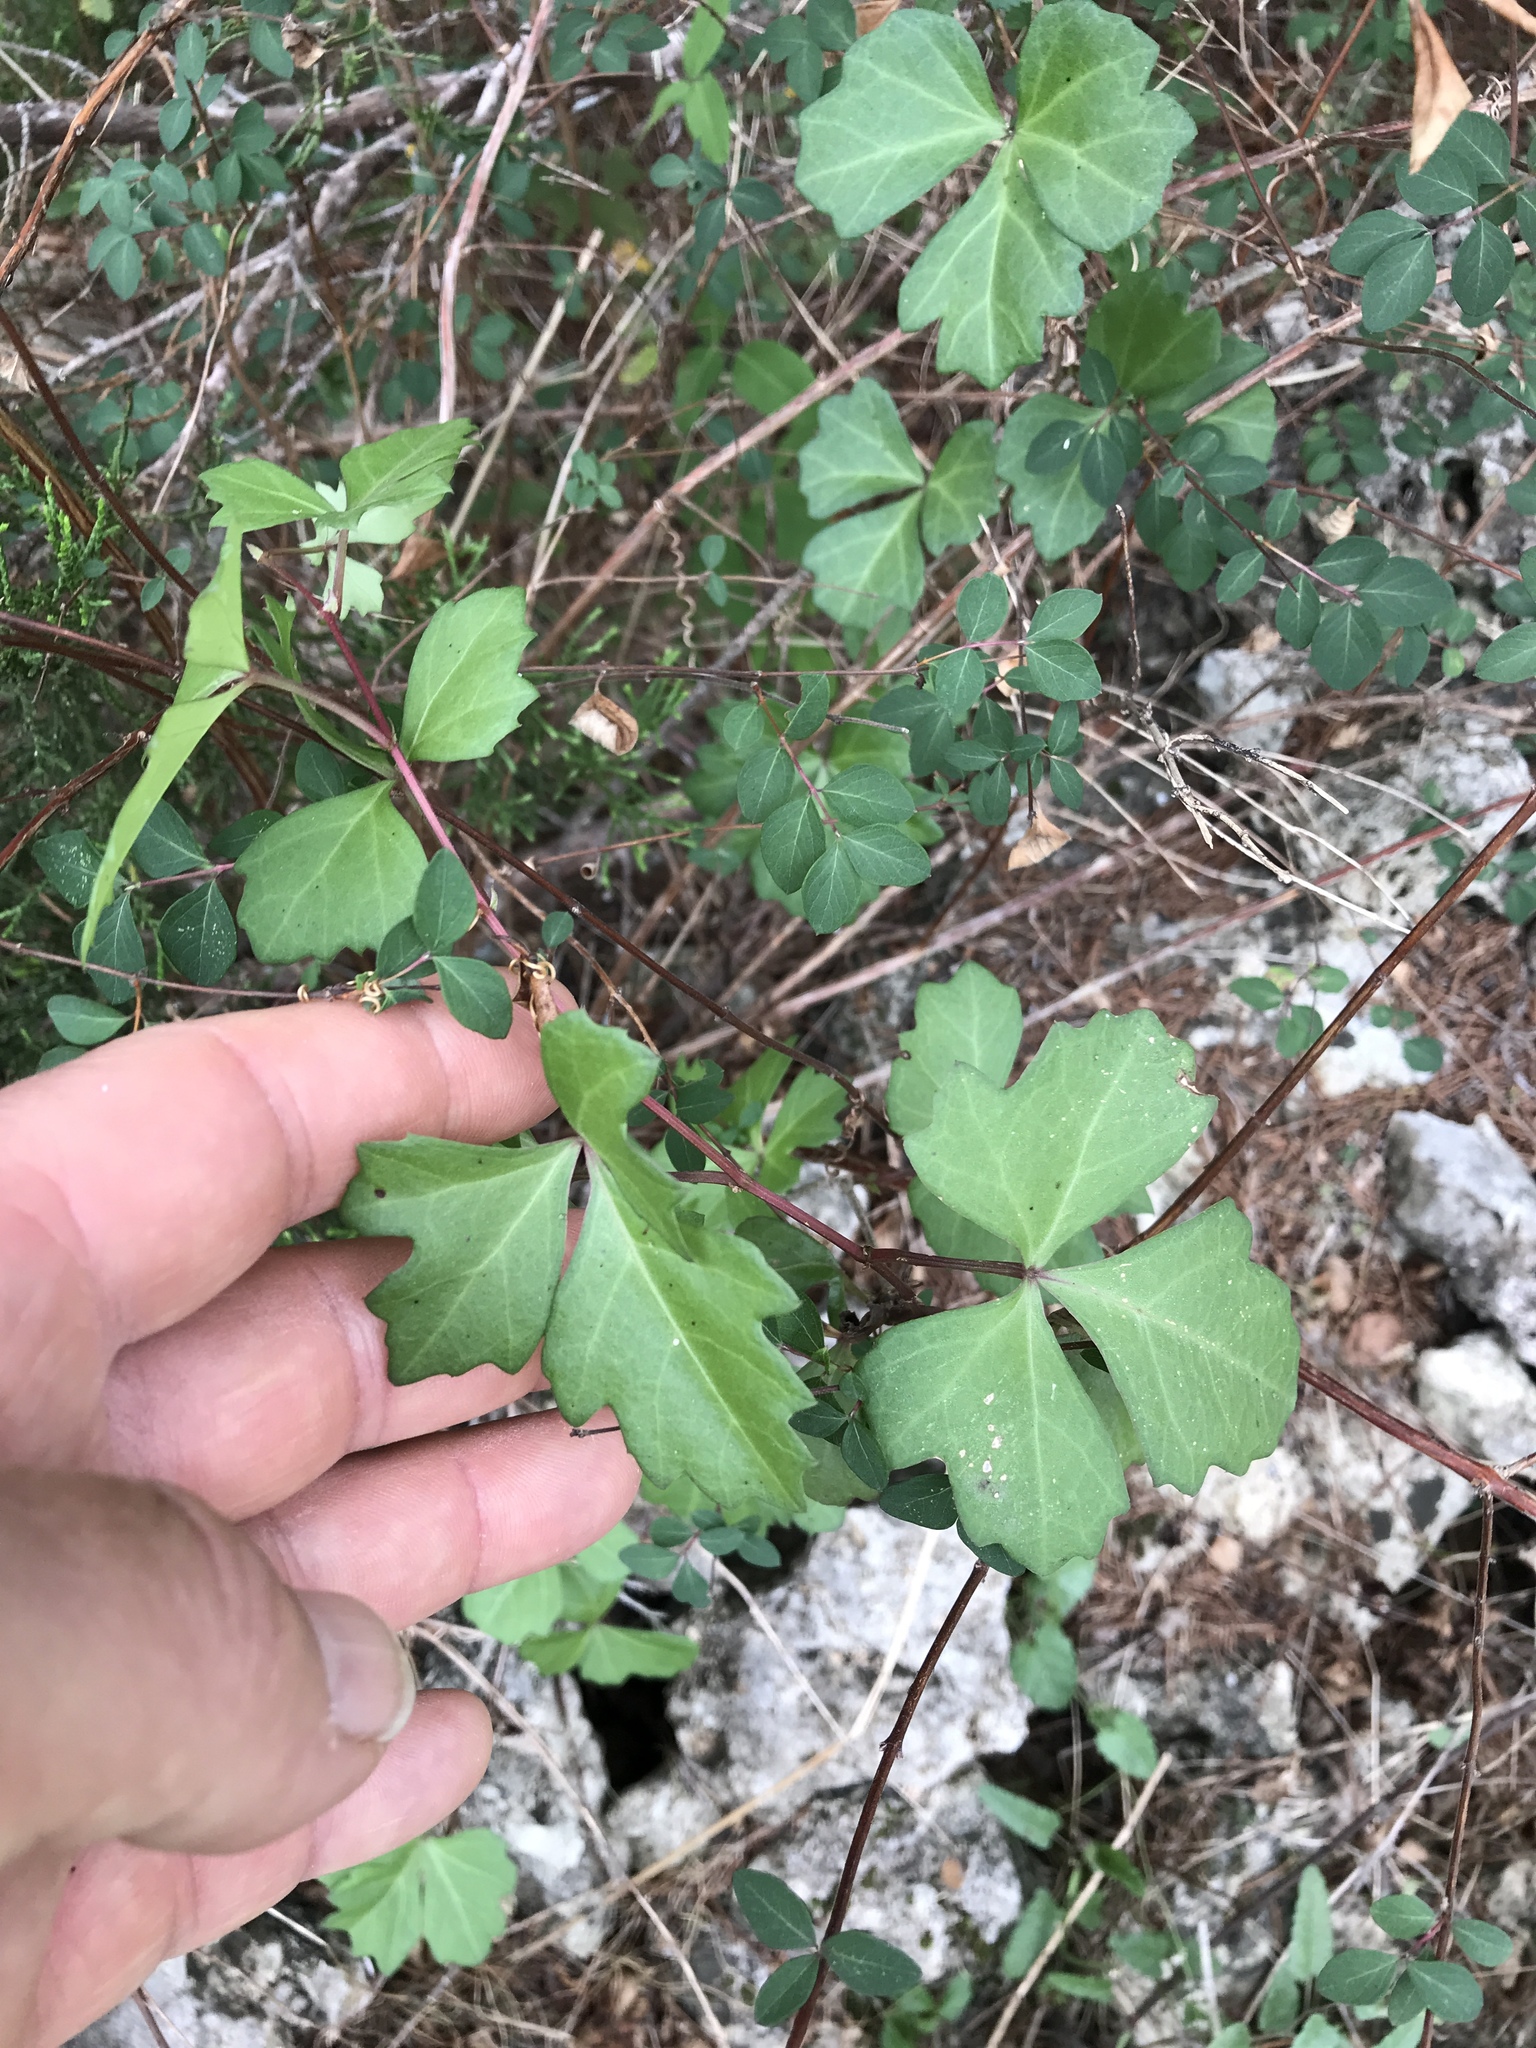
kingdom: Plantae
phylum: Tracheophyta
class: Magnoliopsida
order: Vitales
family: Vitaceae
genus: Cissus
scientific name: Cissus trifoliata
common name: Vine-sorrel
